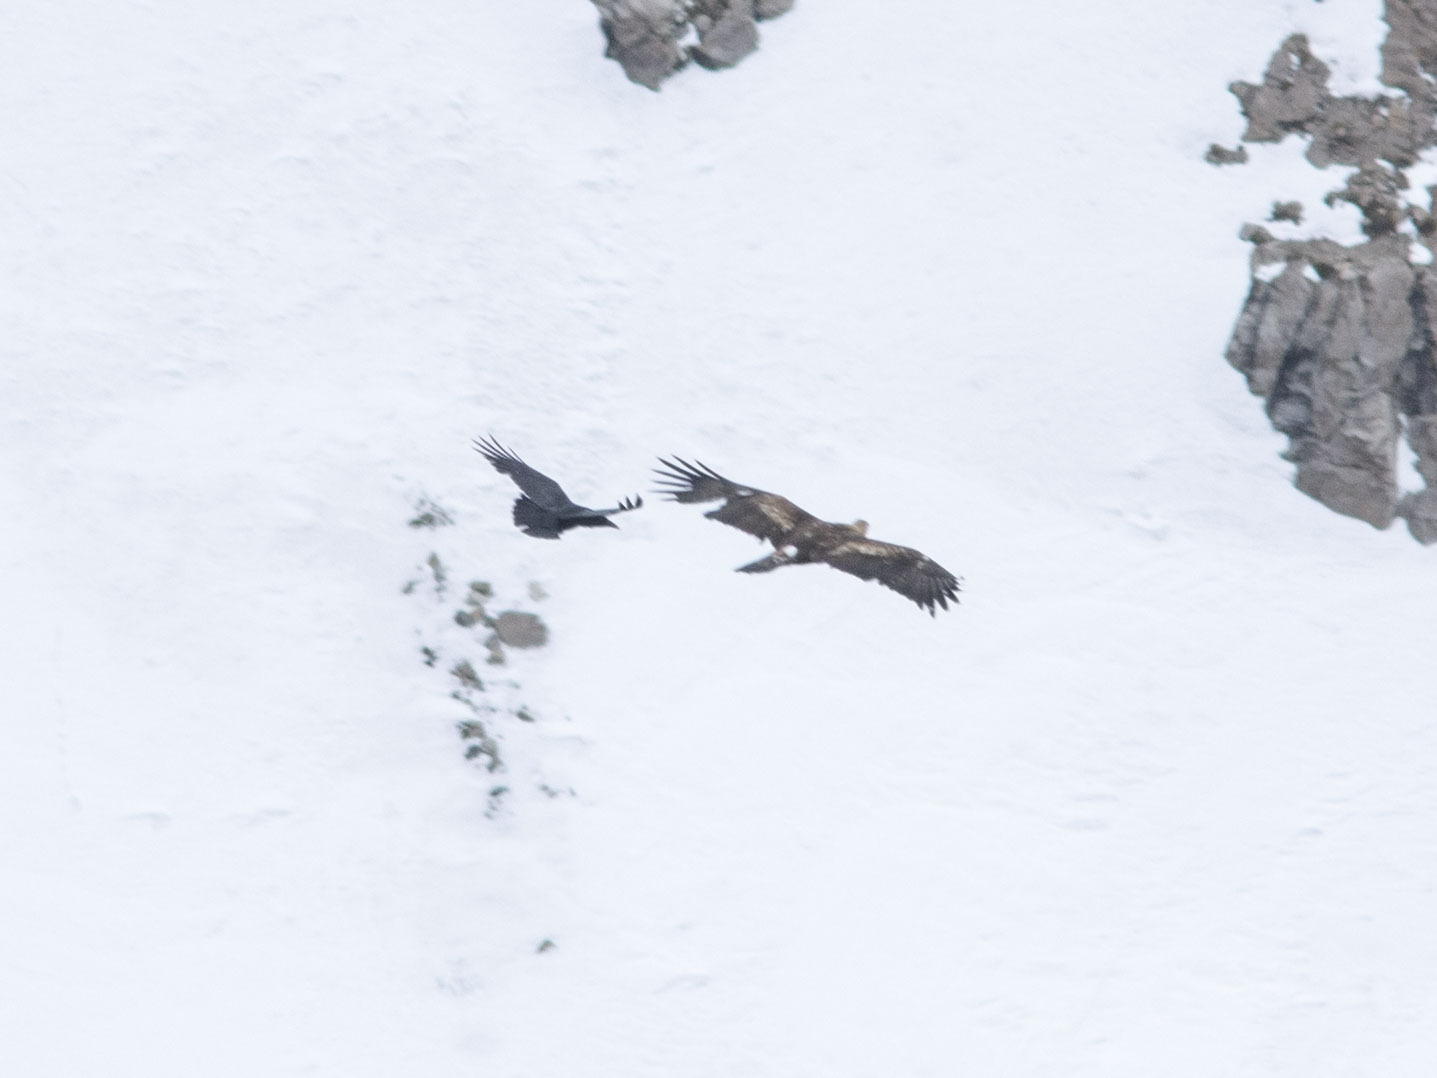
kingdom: Animalia
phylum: Chordata
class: Aves
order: Accipitriformes
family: Accipitridae
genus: Aquila
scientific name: Aquila chrysaetos
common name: Golden eagle
